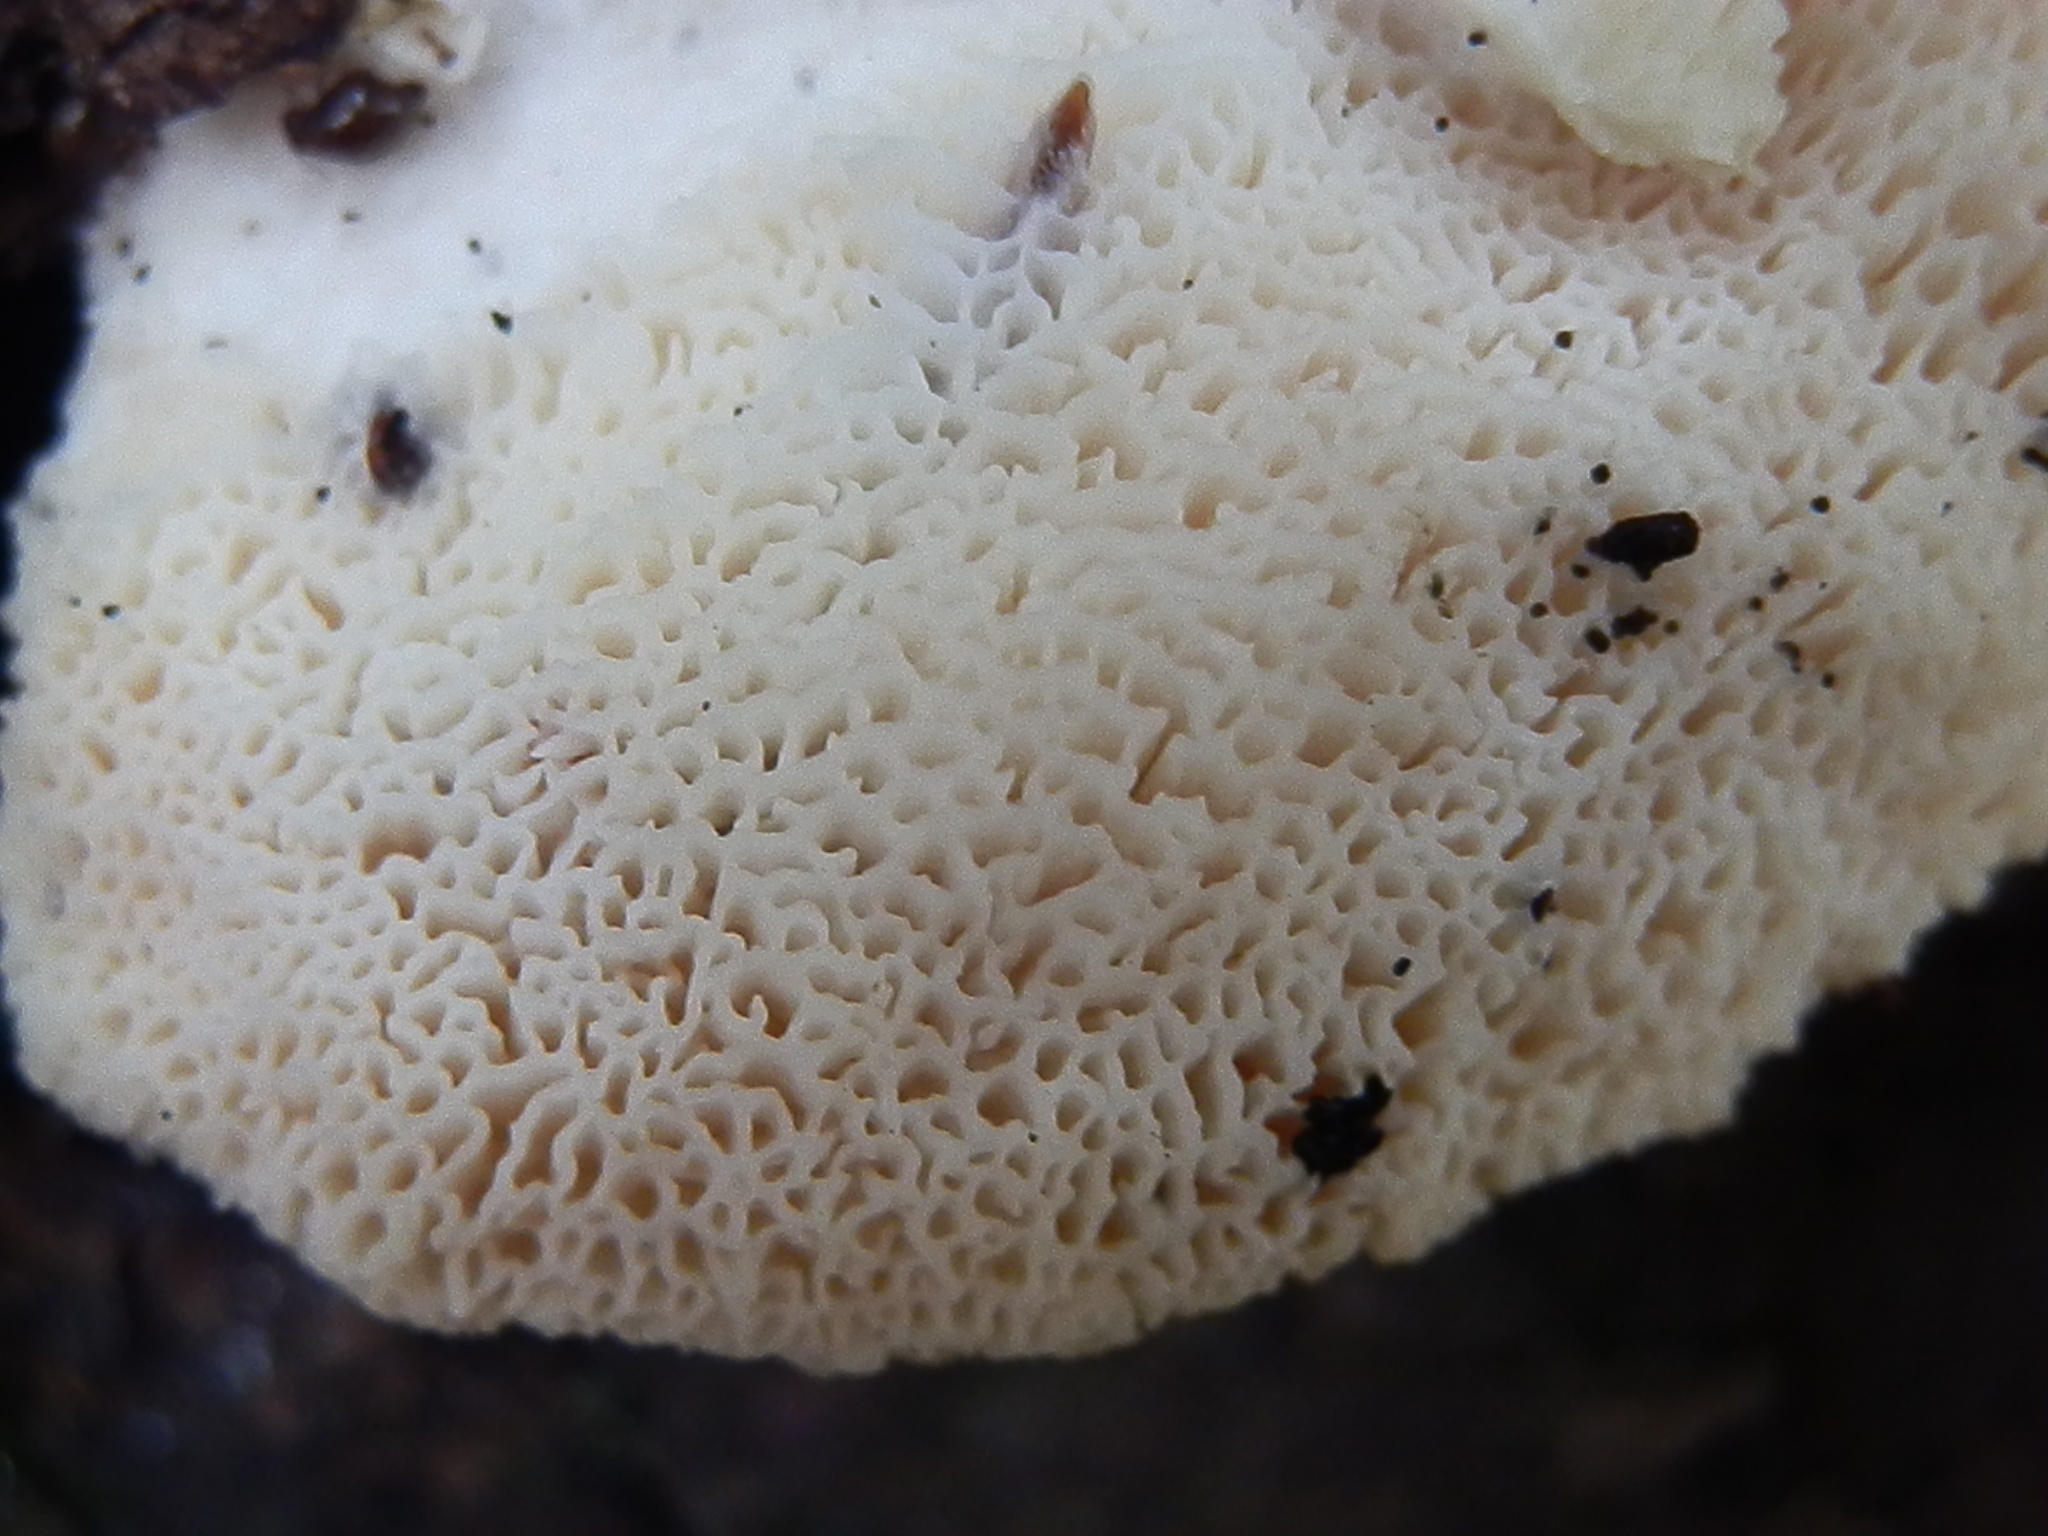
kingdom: Fungi
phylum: Basidiomycota
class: Agaricomycetes
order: Polyporales
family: Irpicaceae
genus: Leptoporus
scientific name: Leptoporus mollis
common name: Soft bracket
